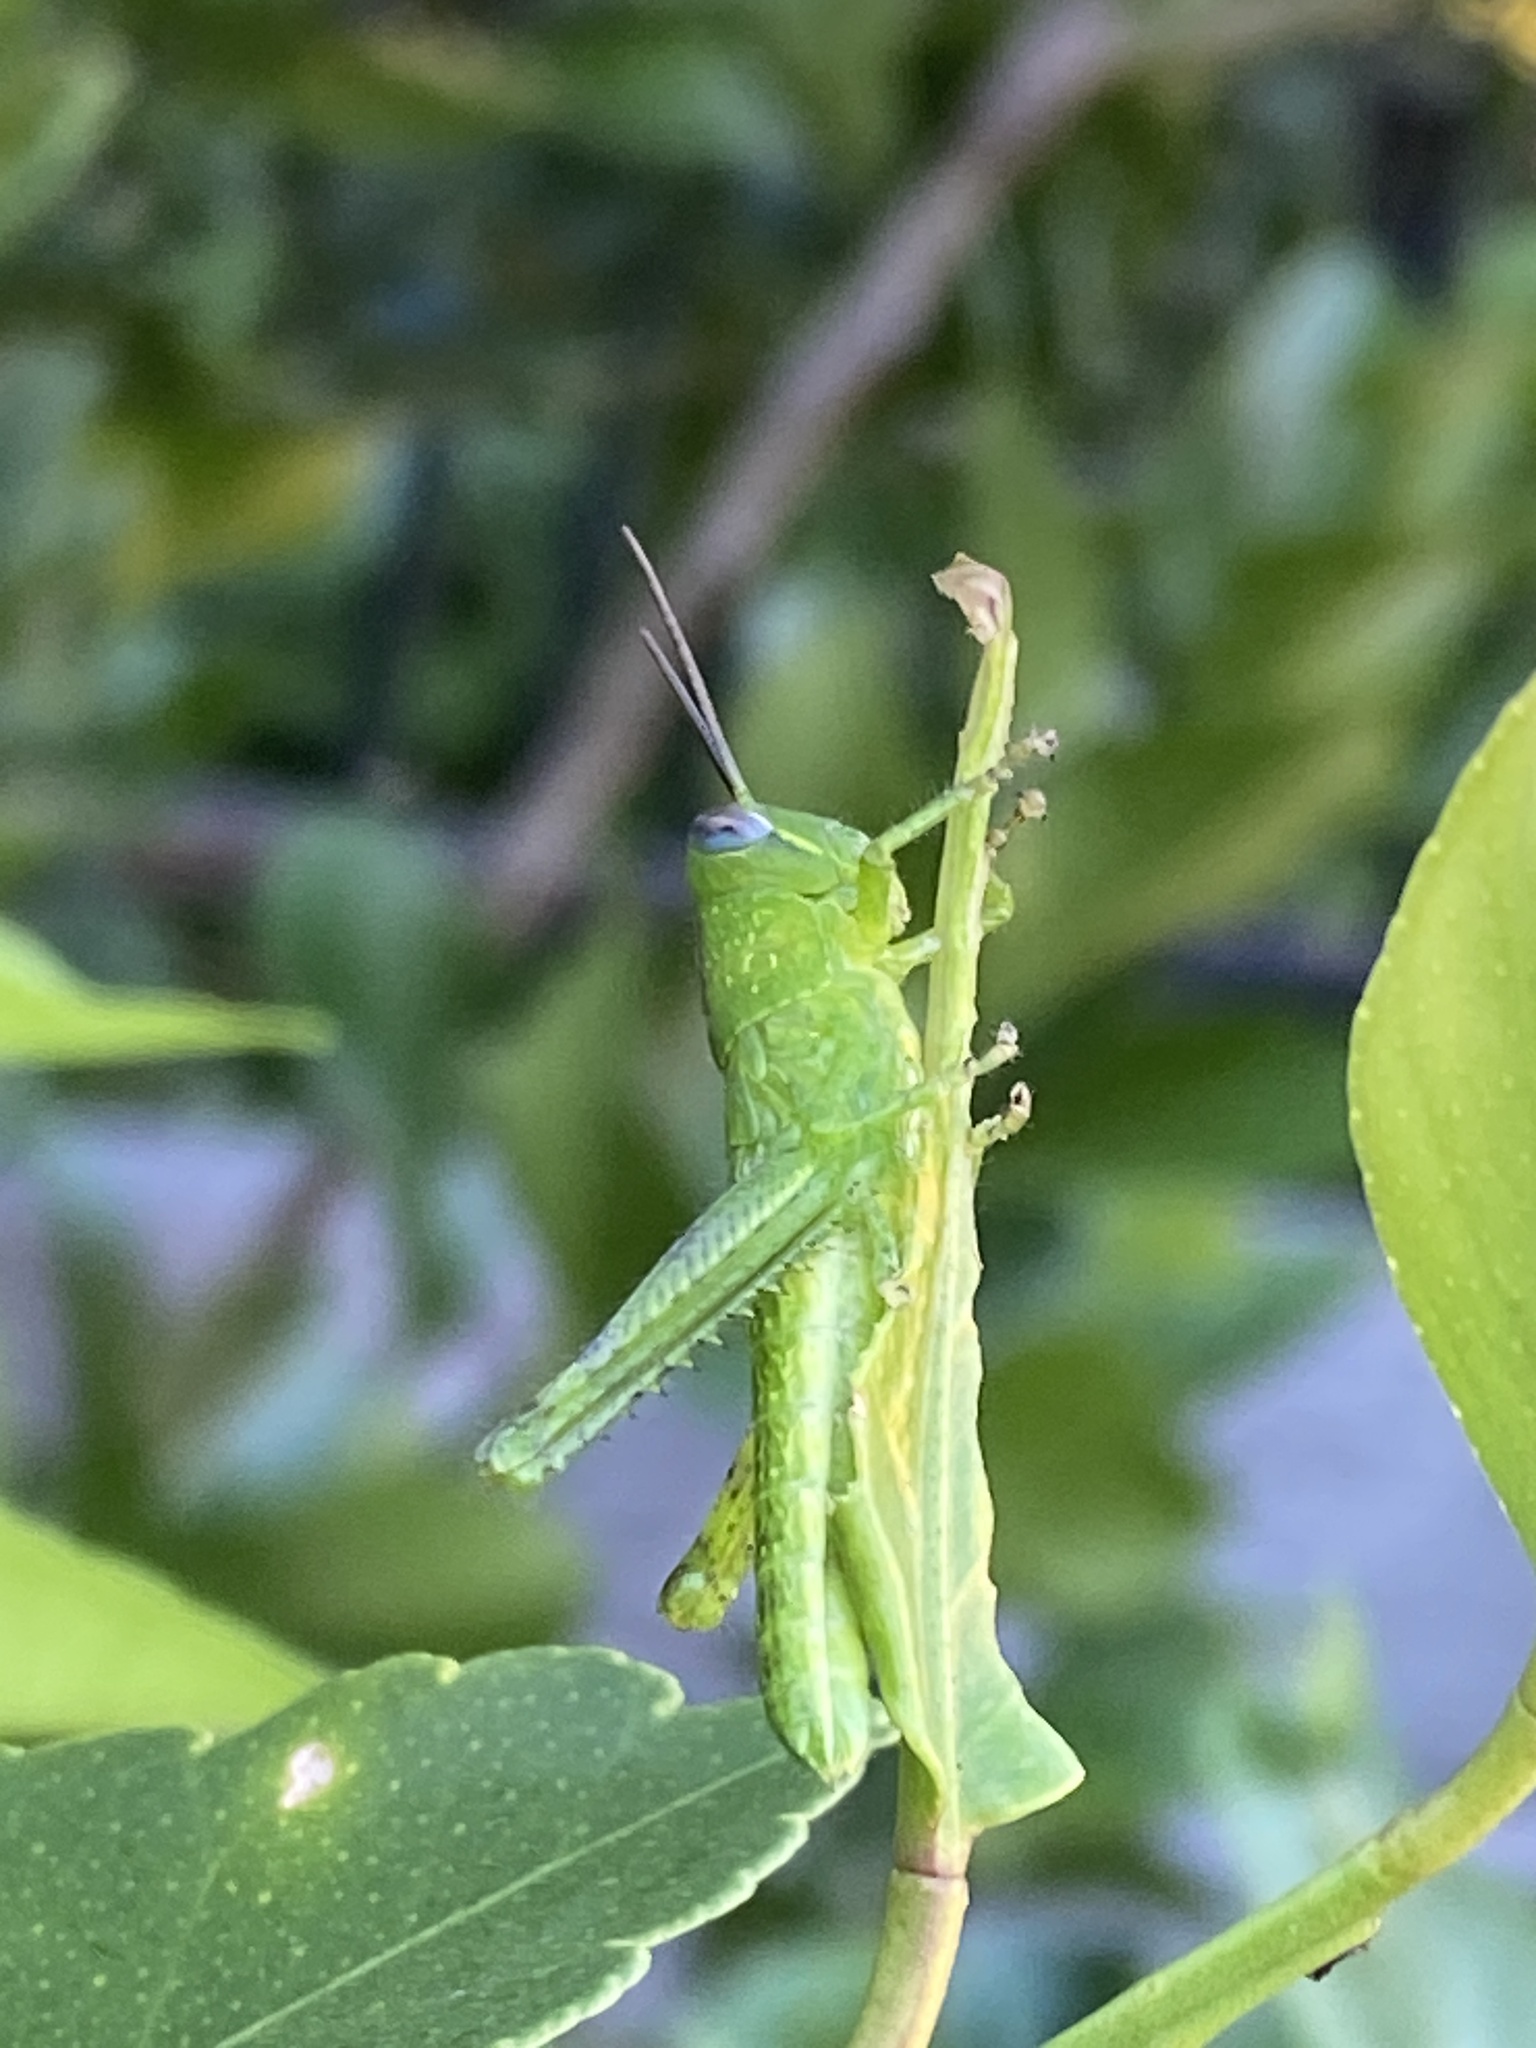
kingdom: Animalia
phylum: Arthropoda
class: Insecta
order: Orthoptera
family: Acrididae
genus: Valanga
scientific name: Valanga irregularis
